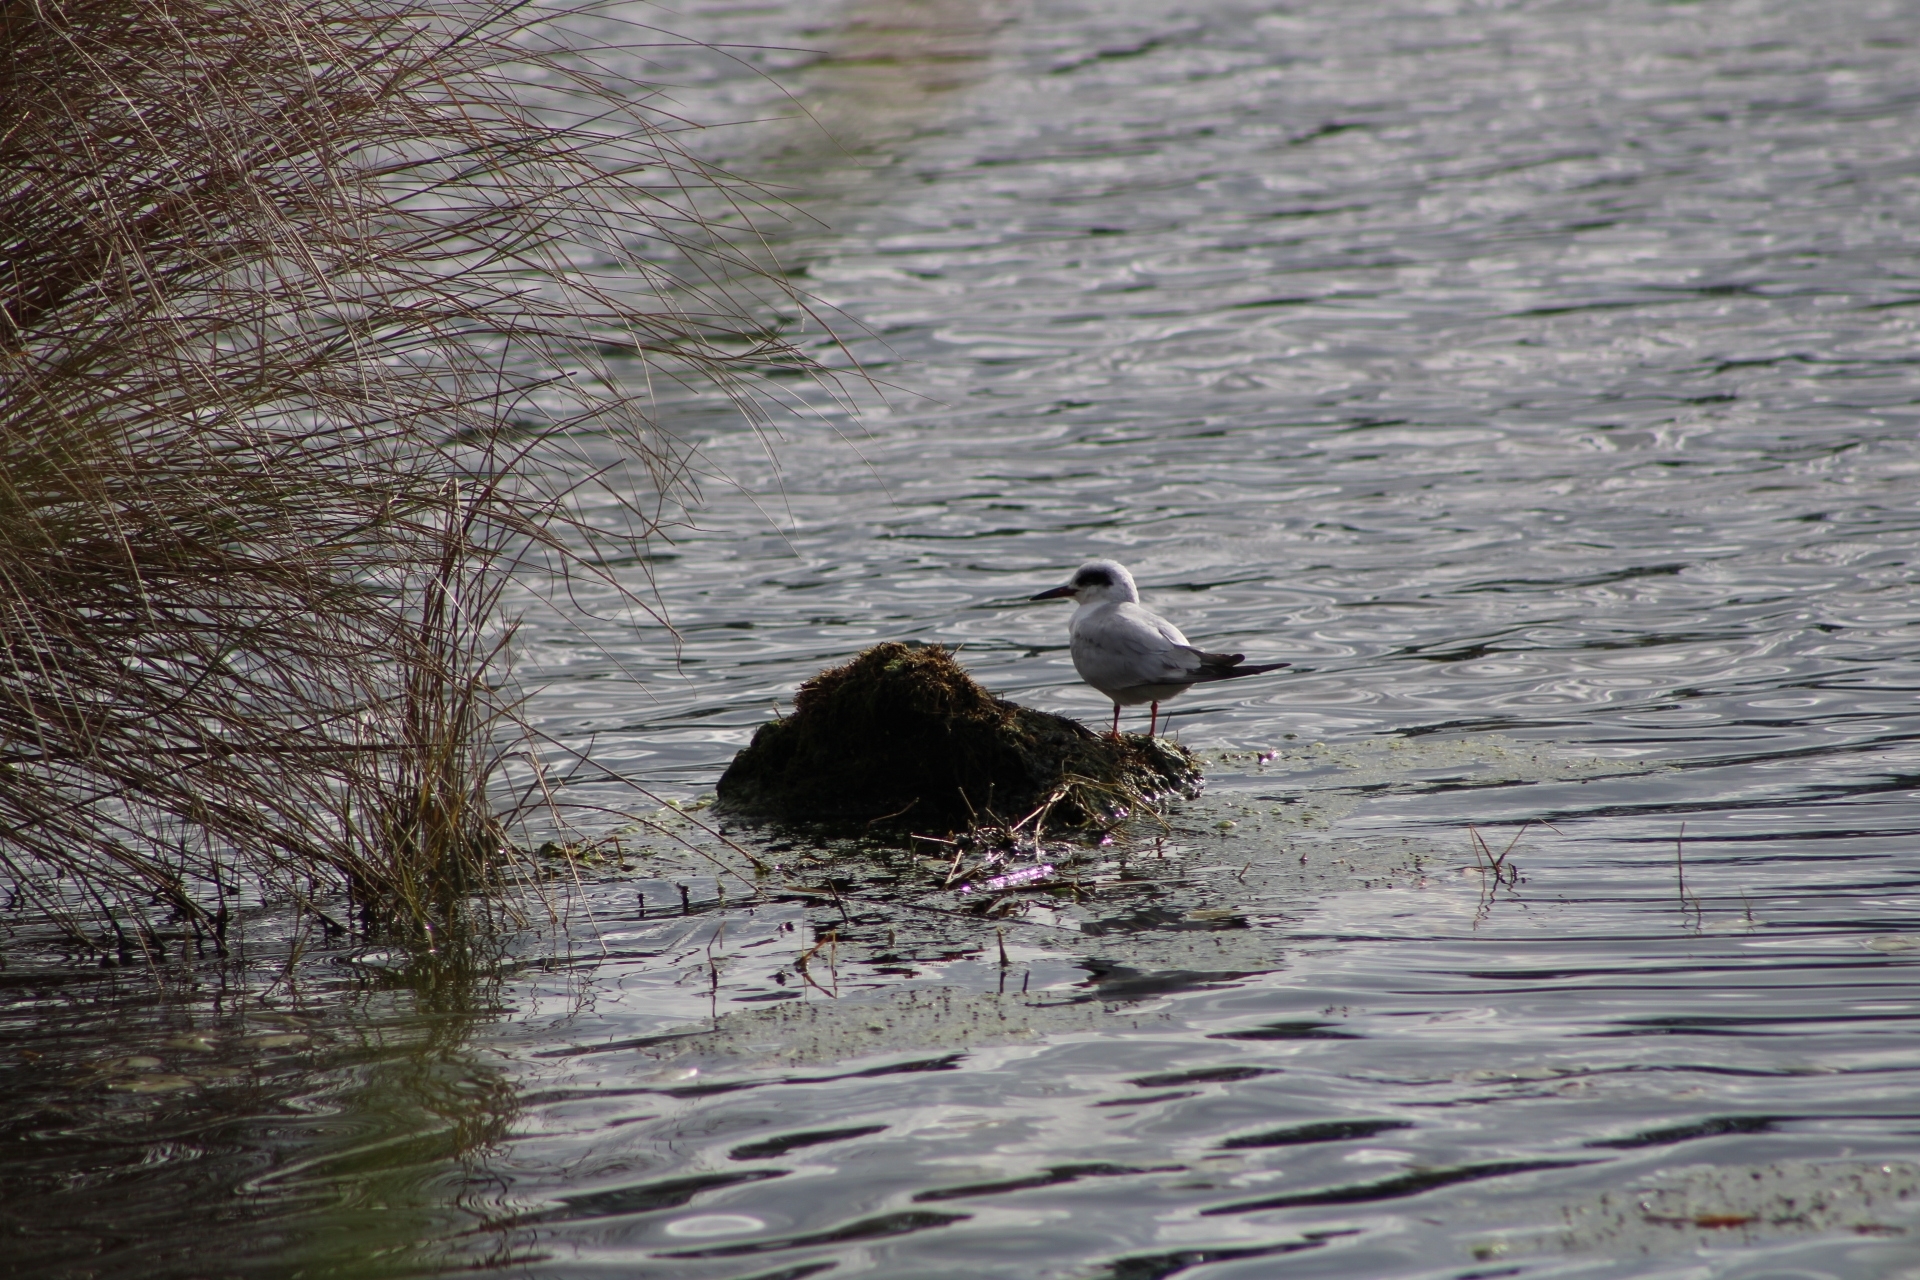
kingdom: Animalia
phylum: Chordata
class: Aves
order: Charadriiformes
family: Laridae
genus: Sterna
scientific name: Sterna forsteri
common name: Forster's tern
